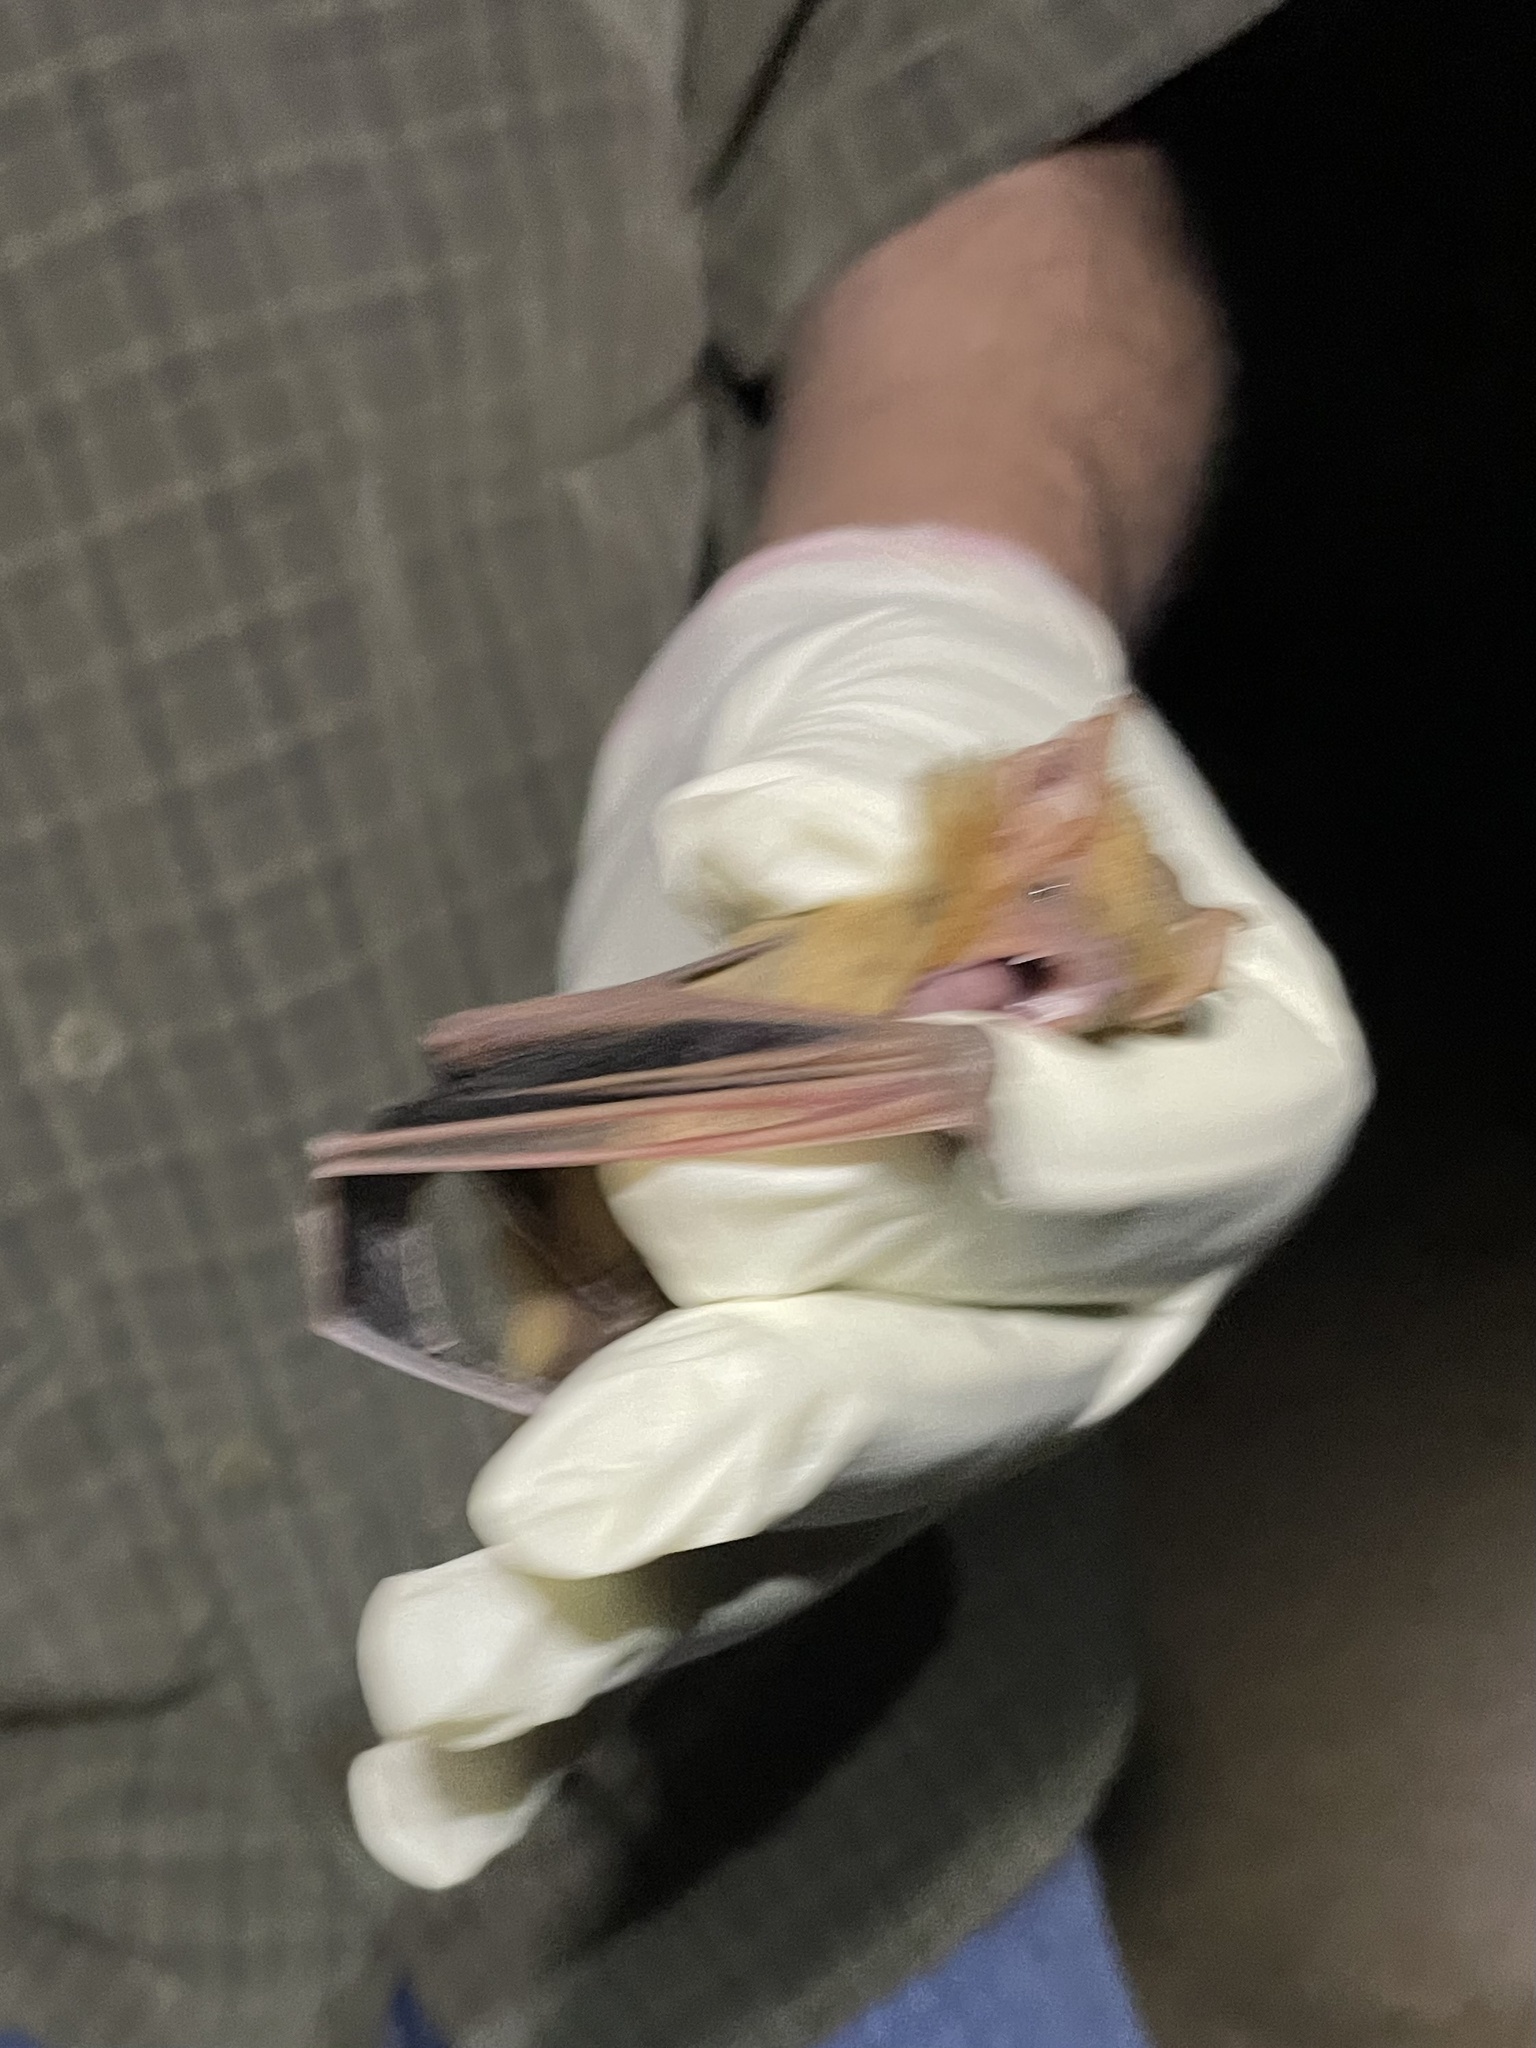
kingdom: Animalia
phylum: Chordata
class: Mammalia
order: Chiroptera
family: Vespertilionidae
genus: Dasypterus
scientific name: Dasypterus xanthinus
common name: Western yellow bat
